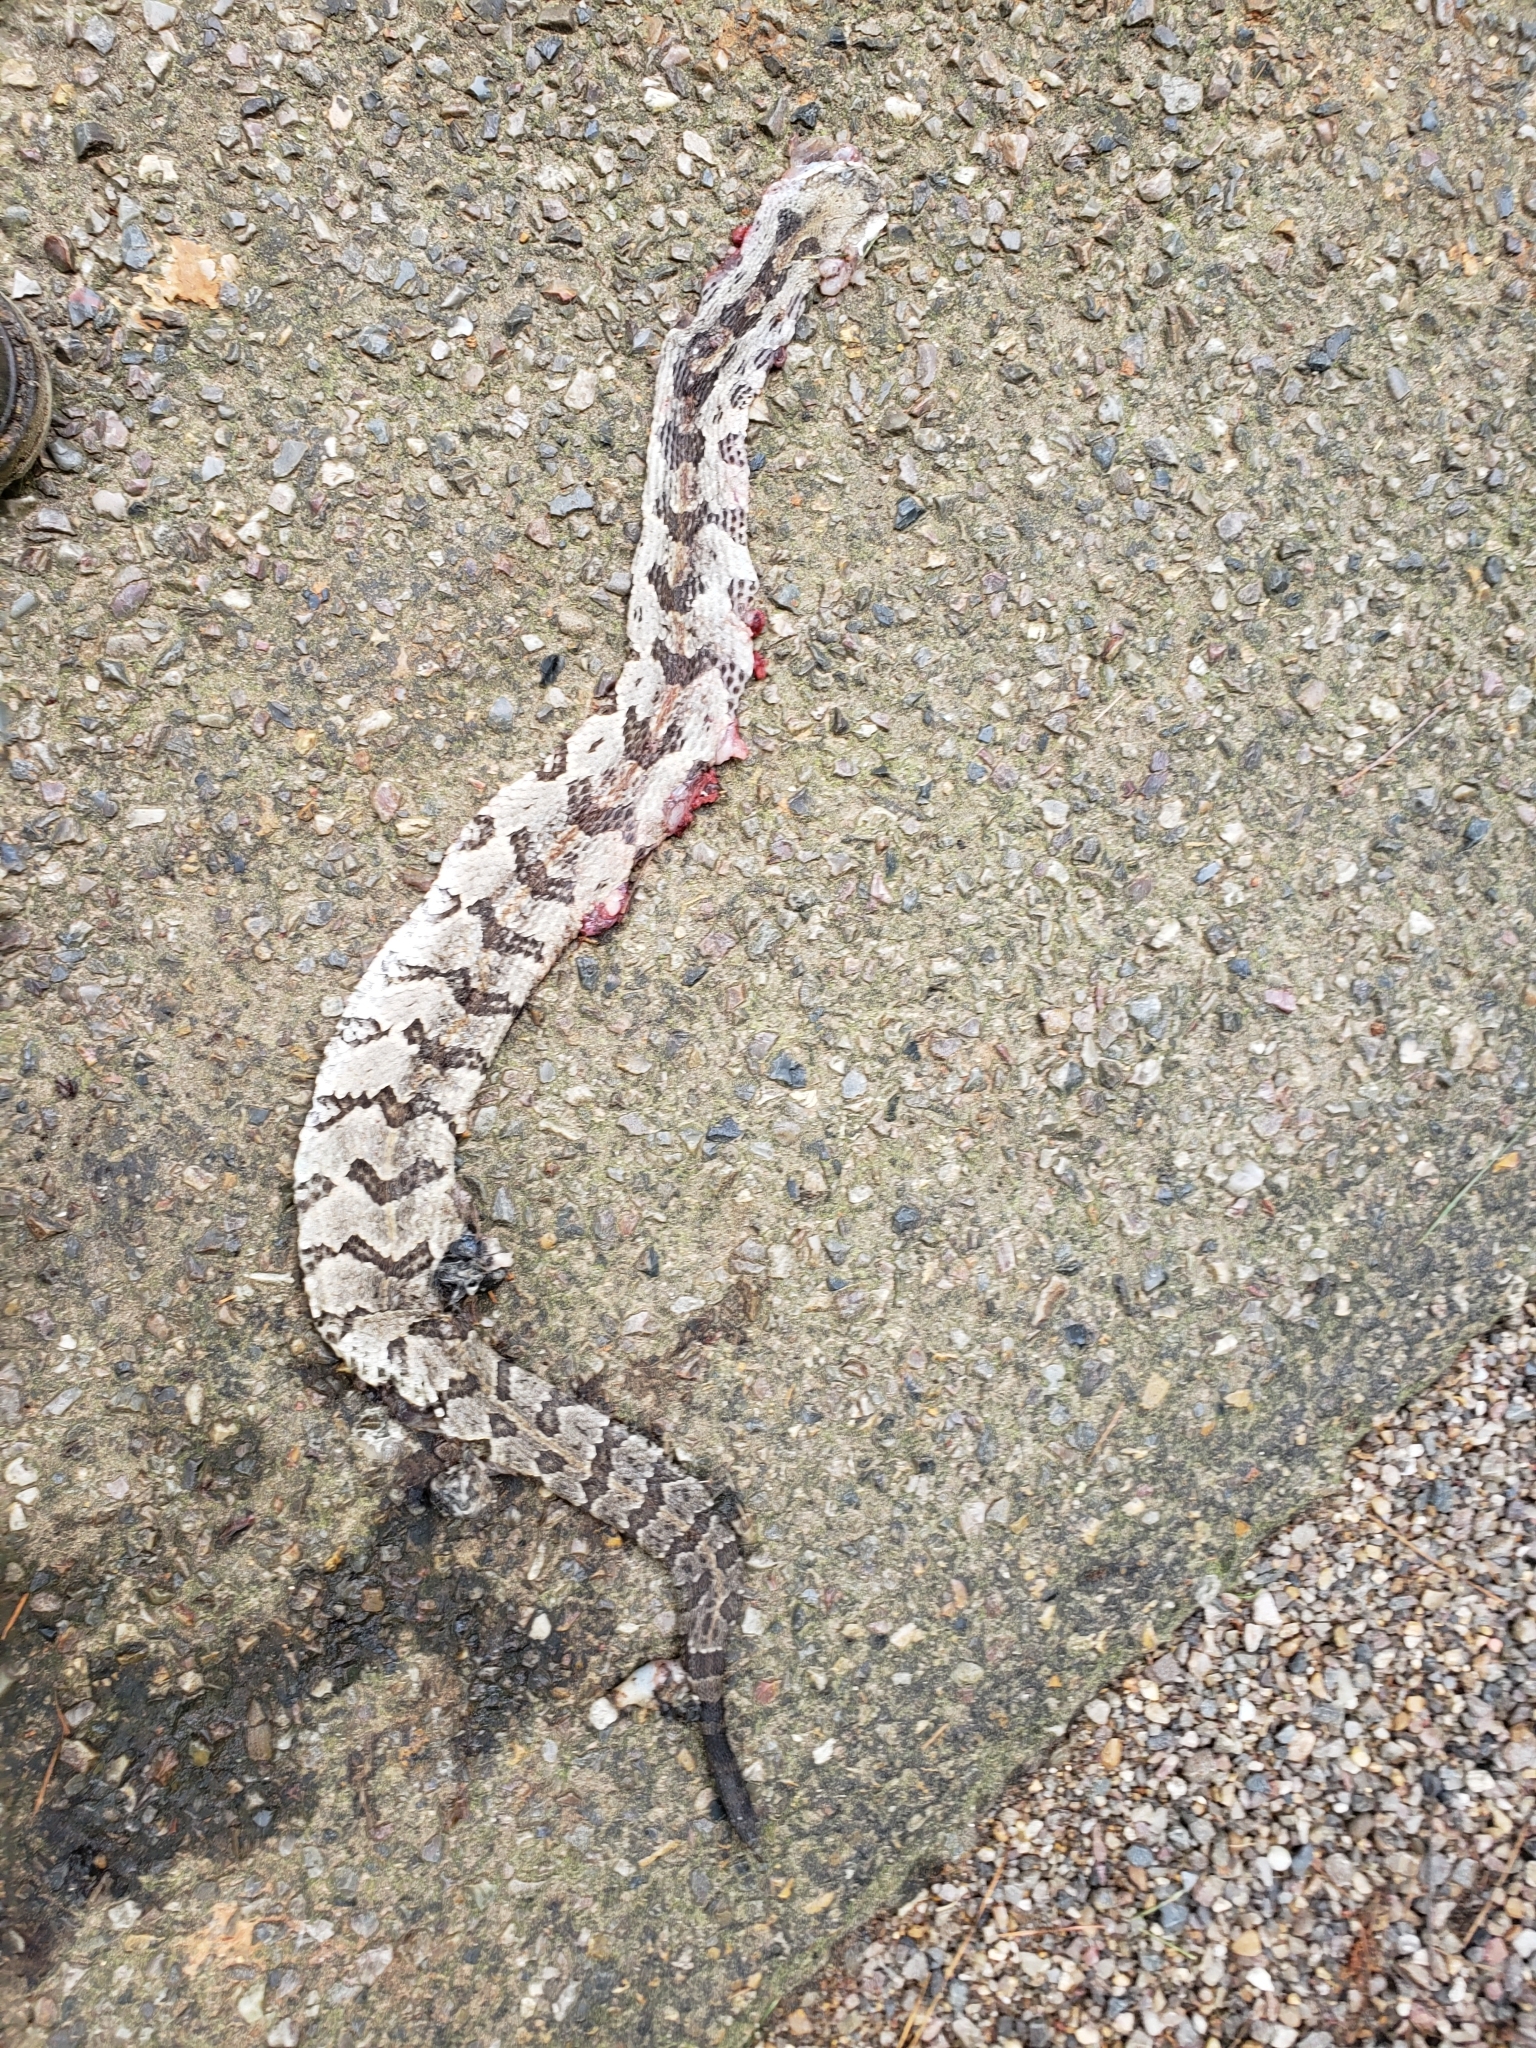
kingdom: Animalia
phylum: Chordata
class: Squamata
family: Viperidae
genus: Crotalus
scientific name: Crotalus horridus
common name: Timber rattlesnake
